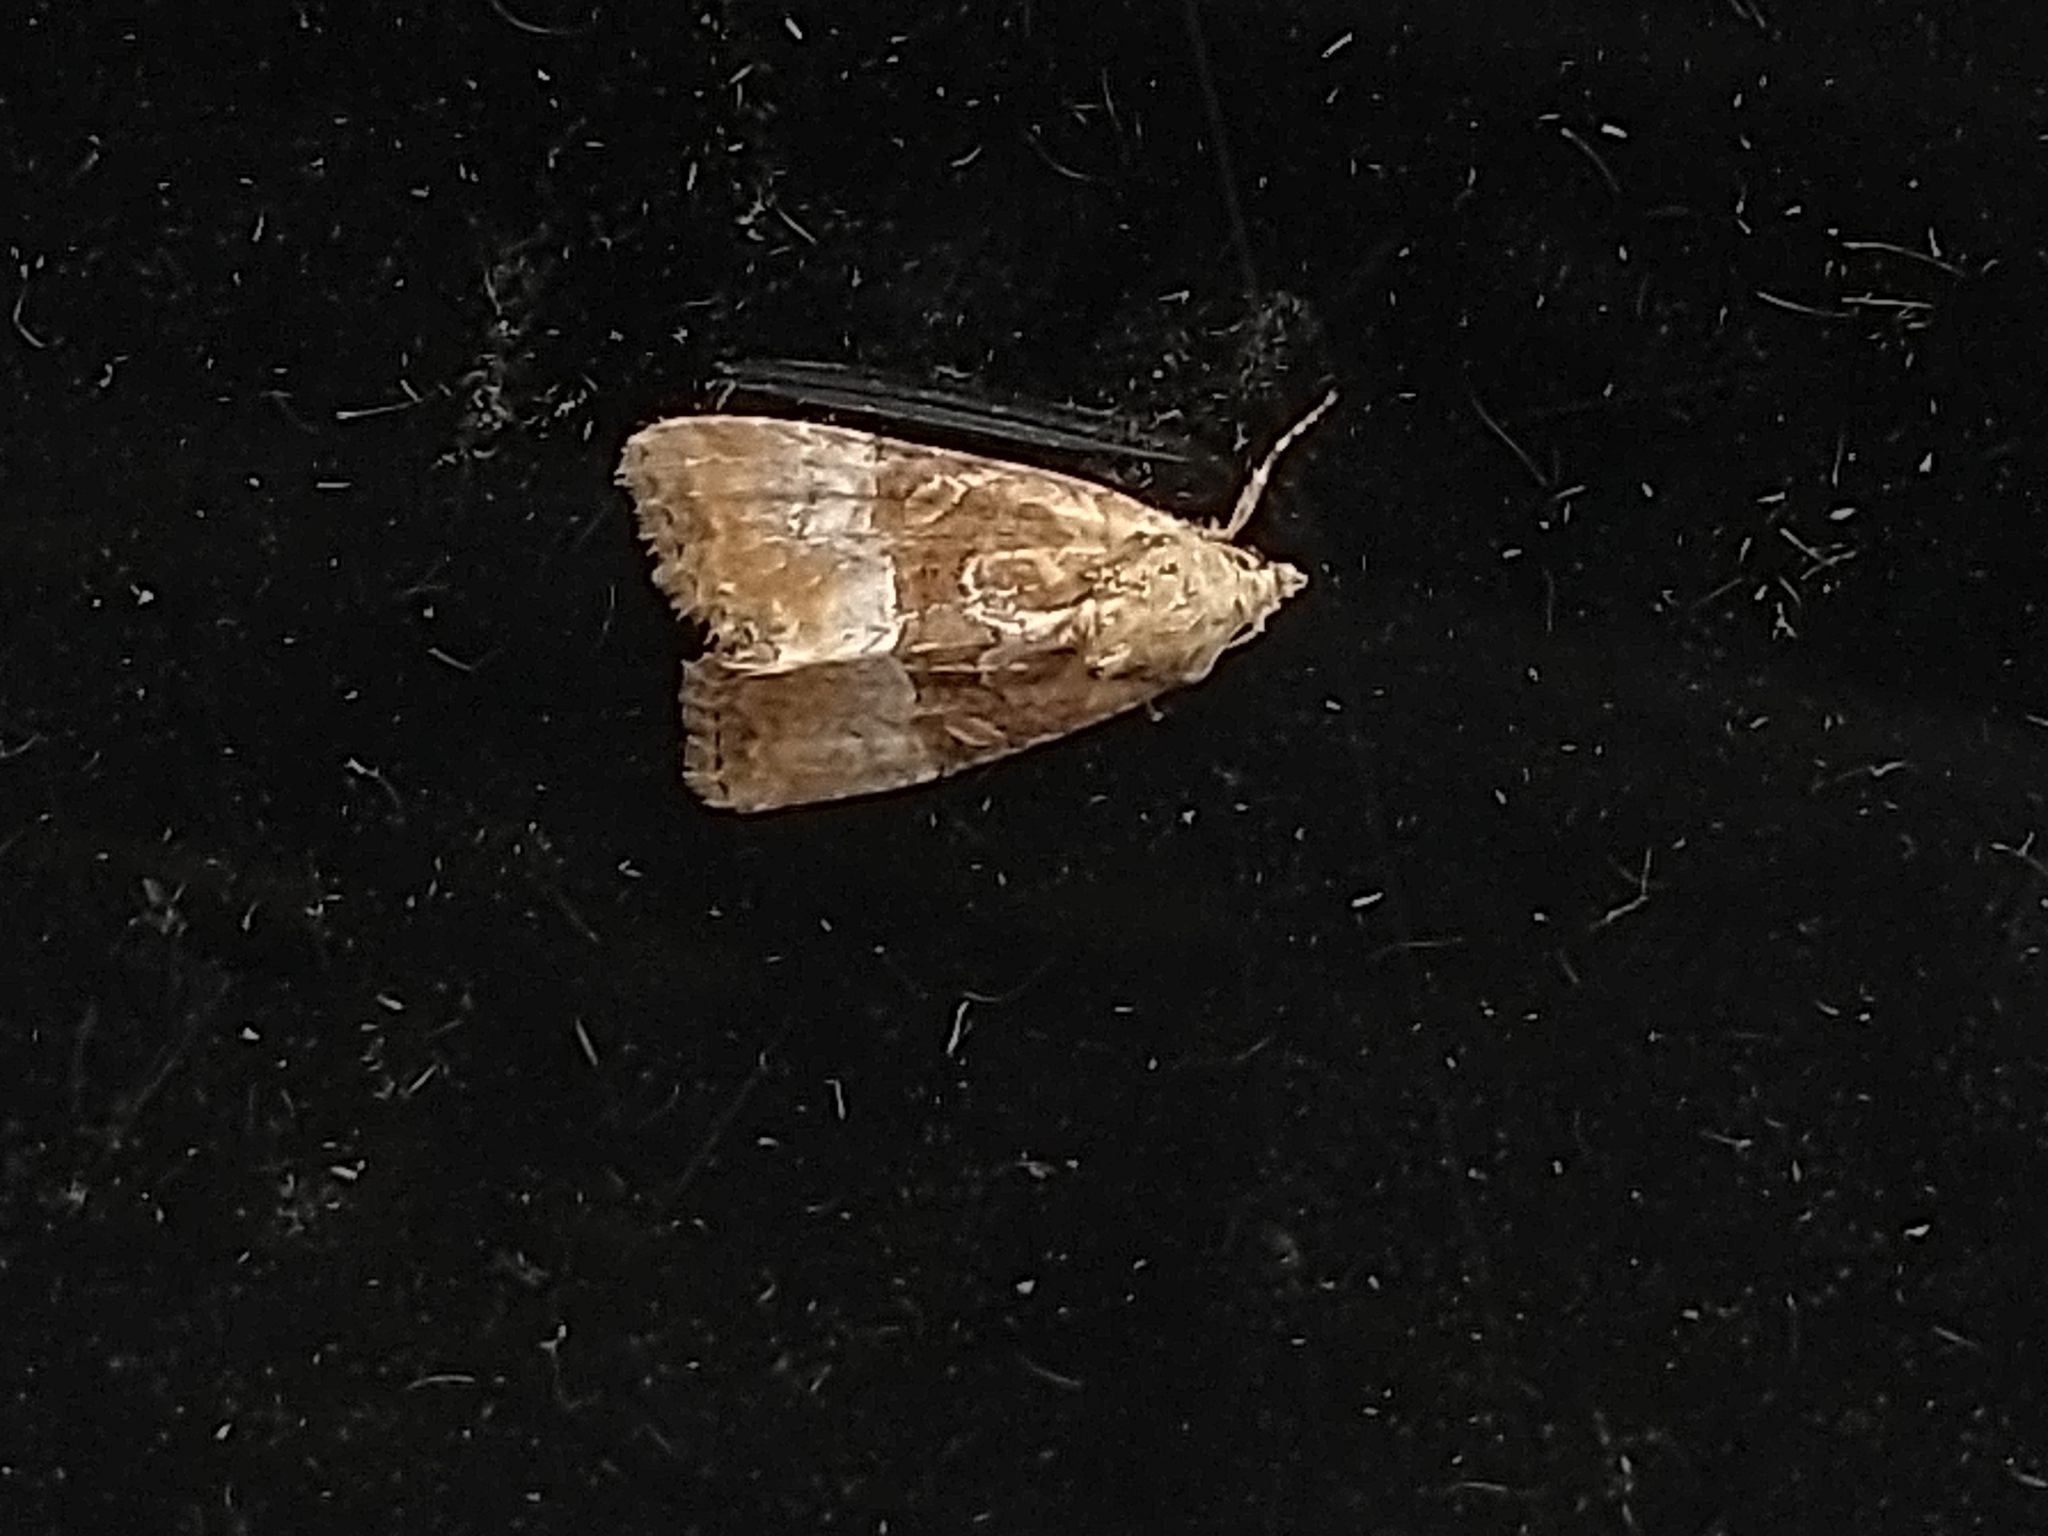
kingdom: Animalia
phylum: Arthropoda
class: Insecta
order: Lepidoptera
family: Noctuidae
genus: Mesoligia
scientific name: Mesoligia furuncula
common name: Cloaked minor
